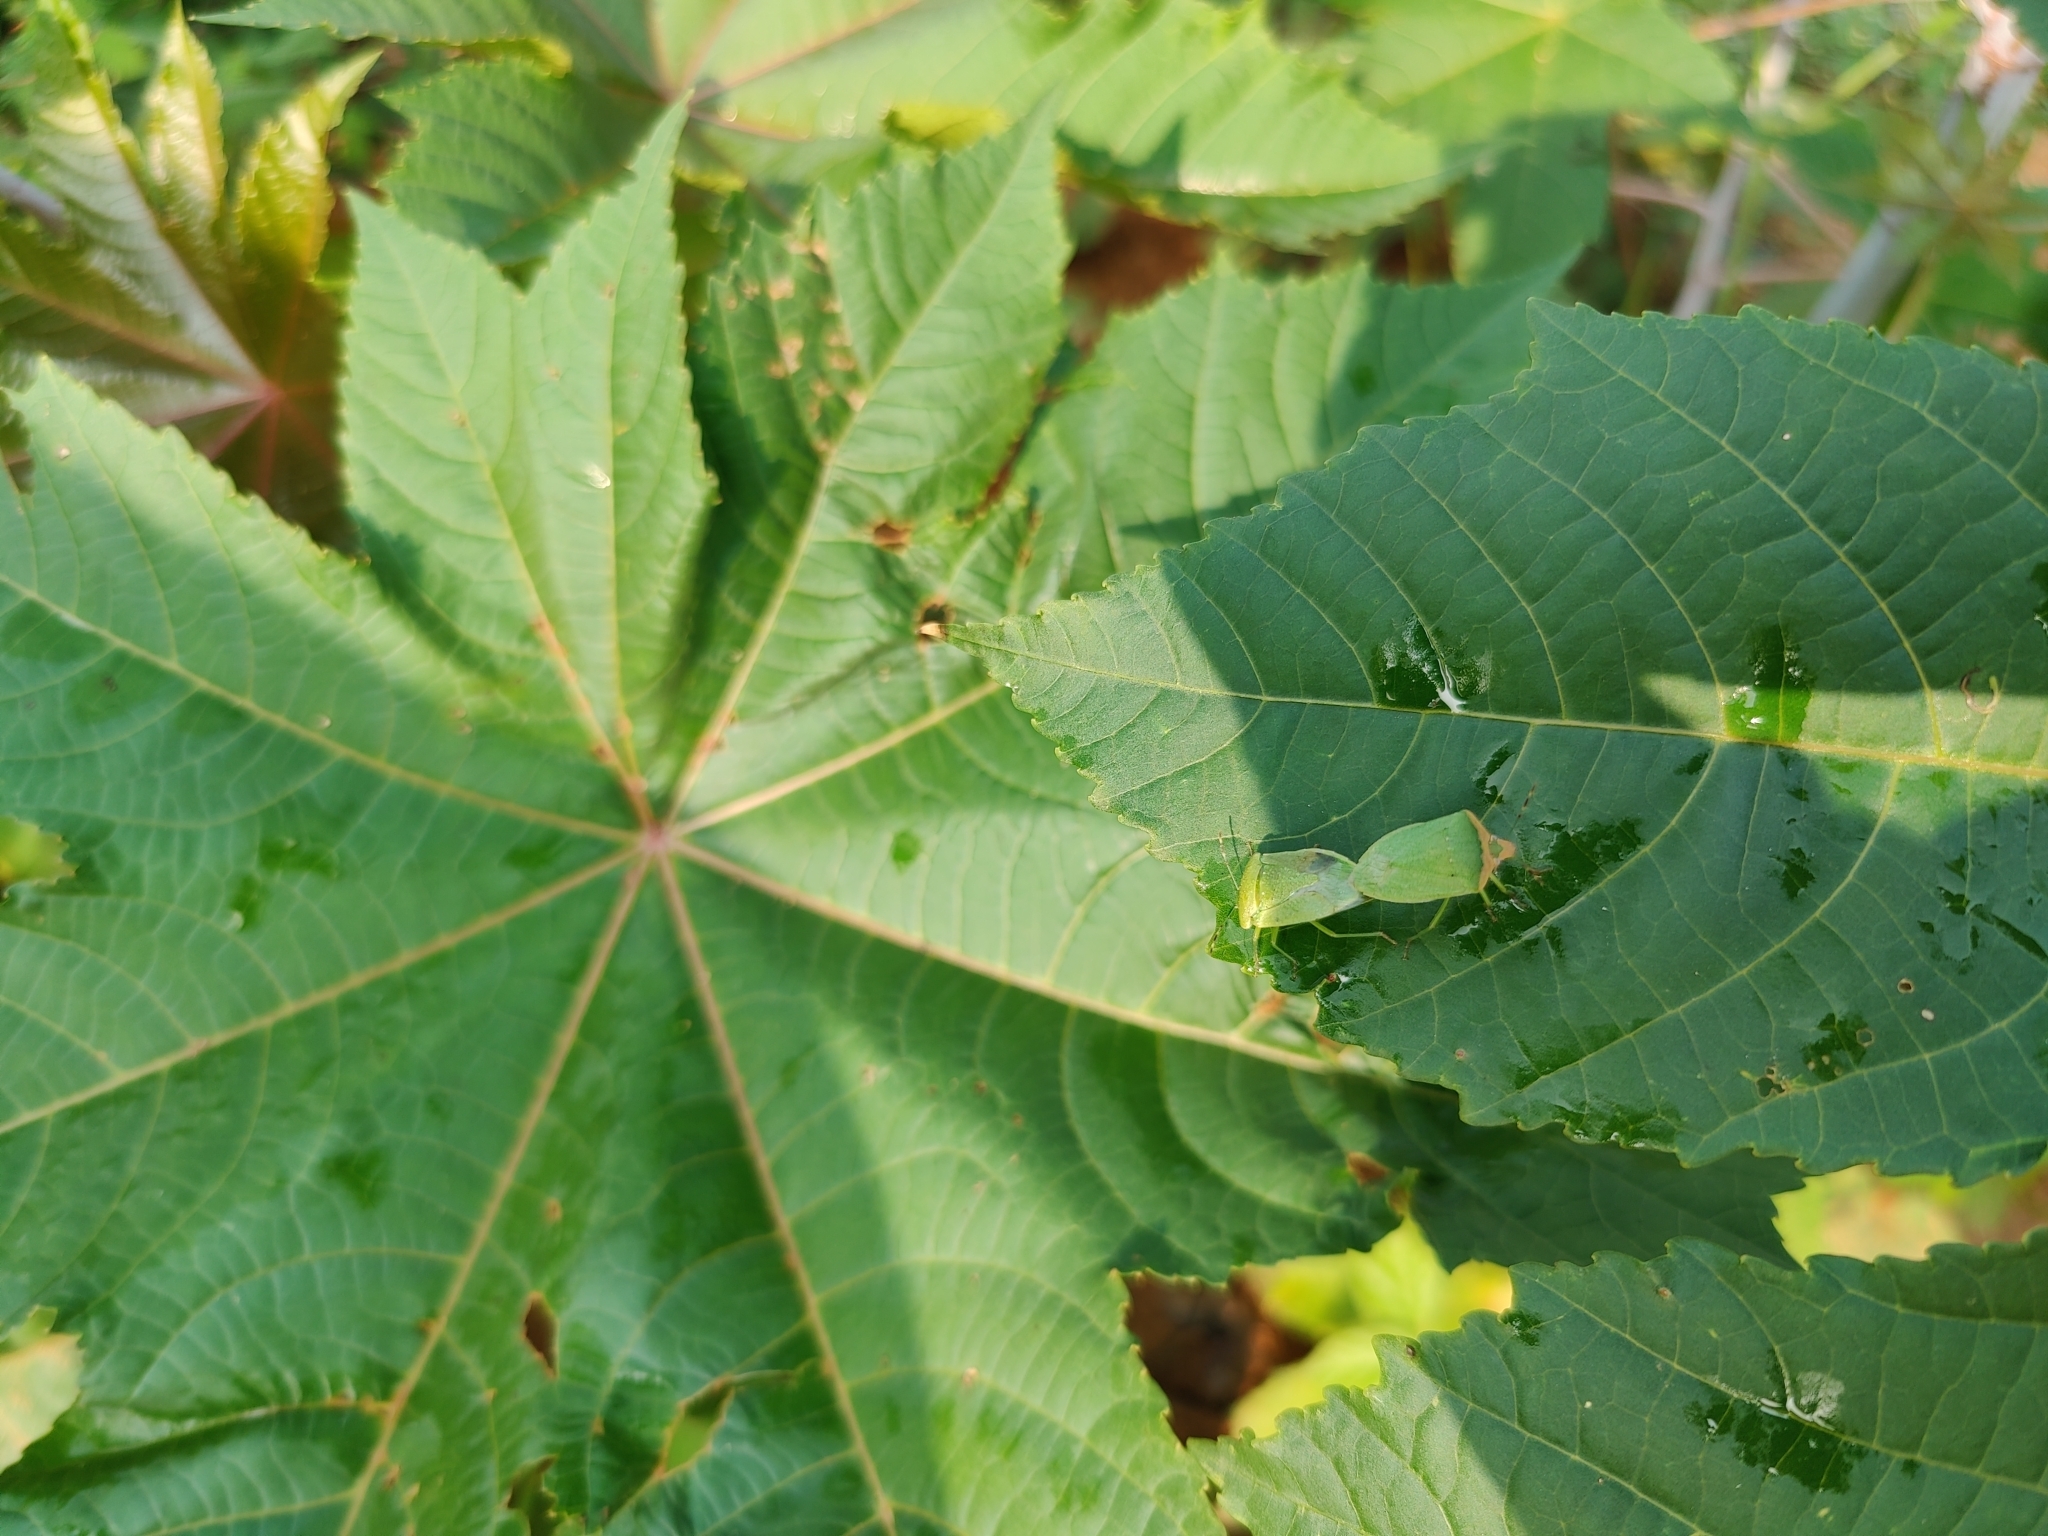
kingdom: Animalia
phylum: Arthropoda
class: Insecta
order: Hemiptera
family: Pentatomidae
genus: Nezara
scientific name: Nezara viridula
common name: Southern green stink bug
